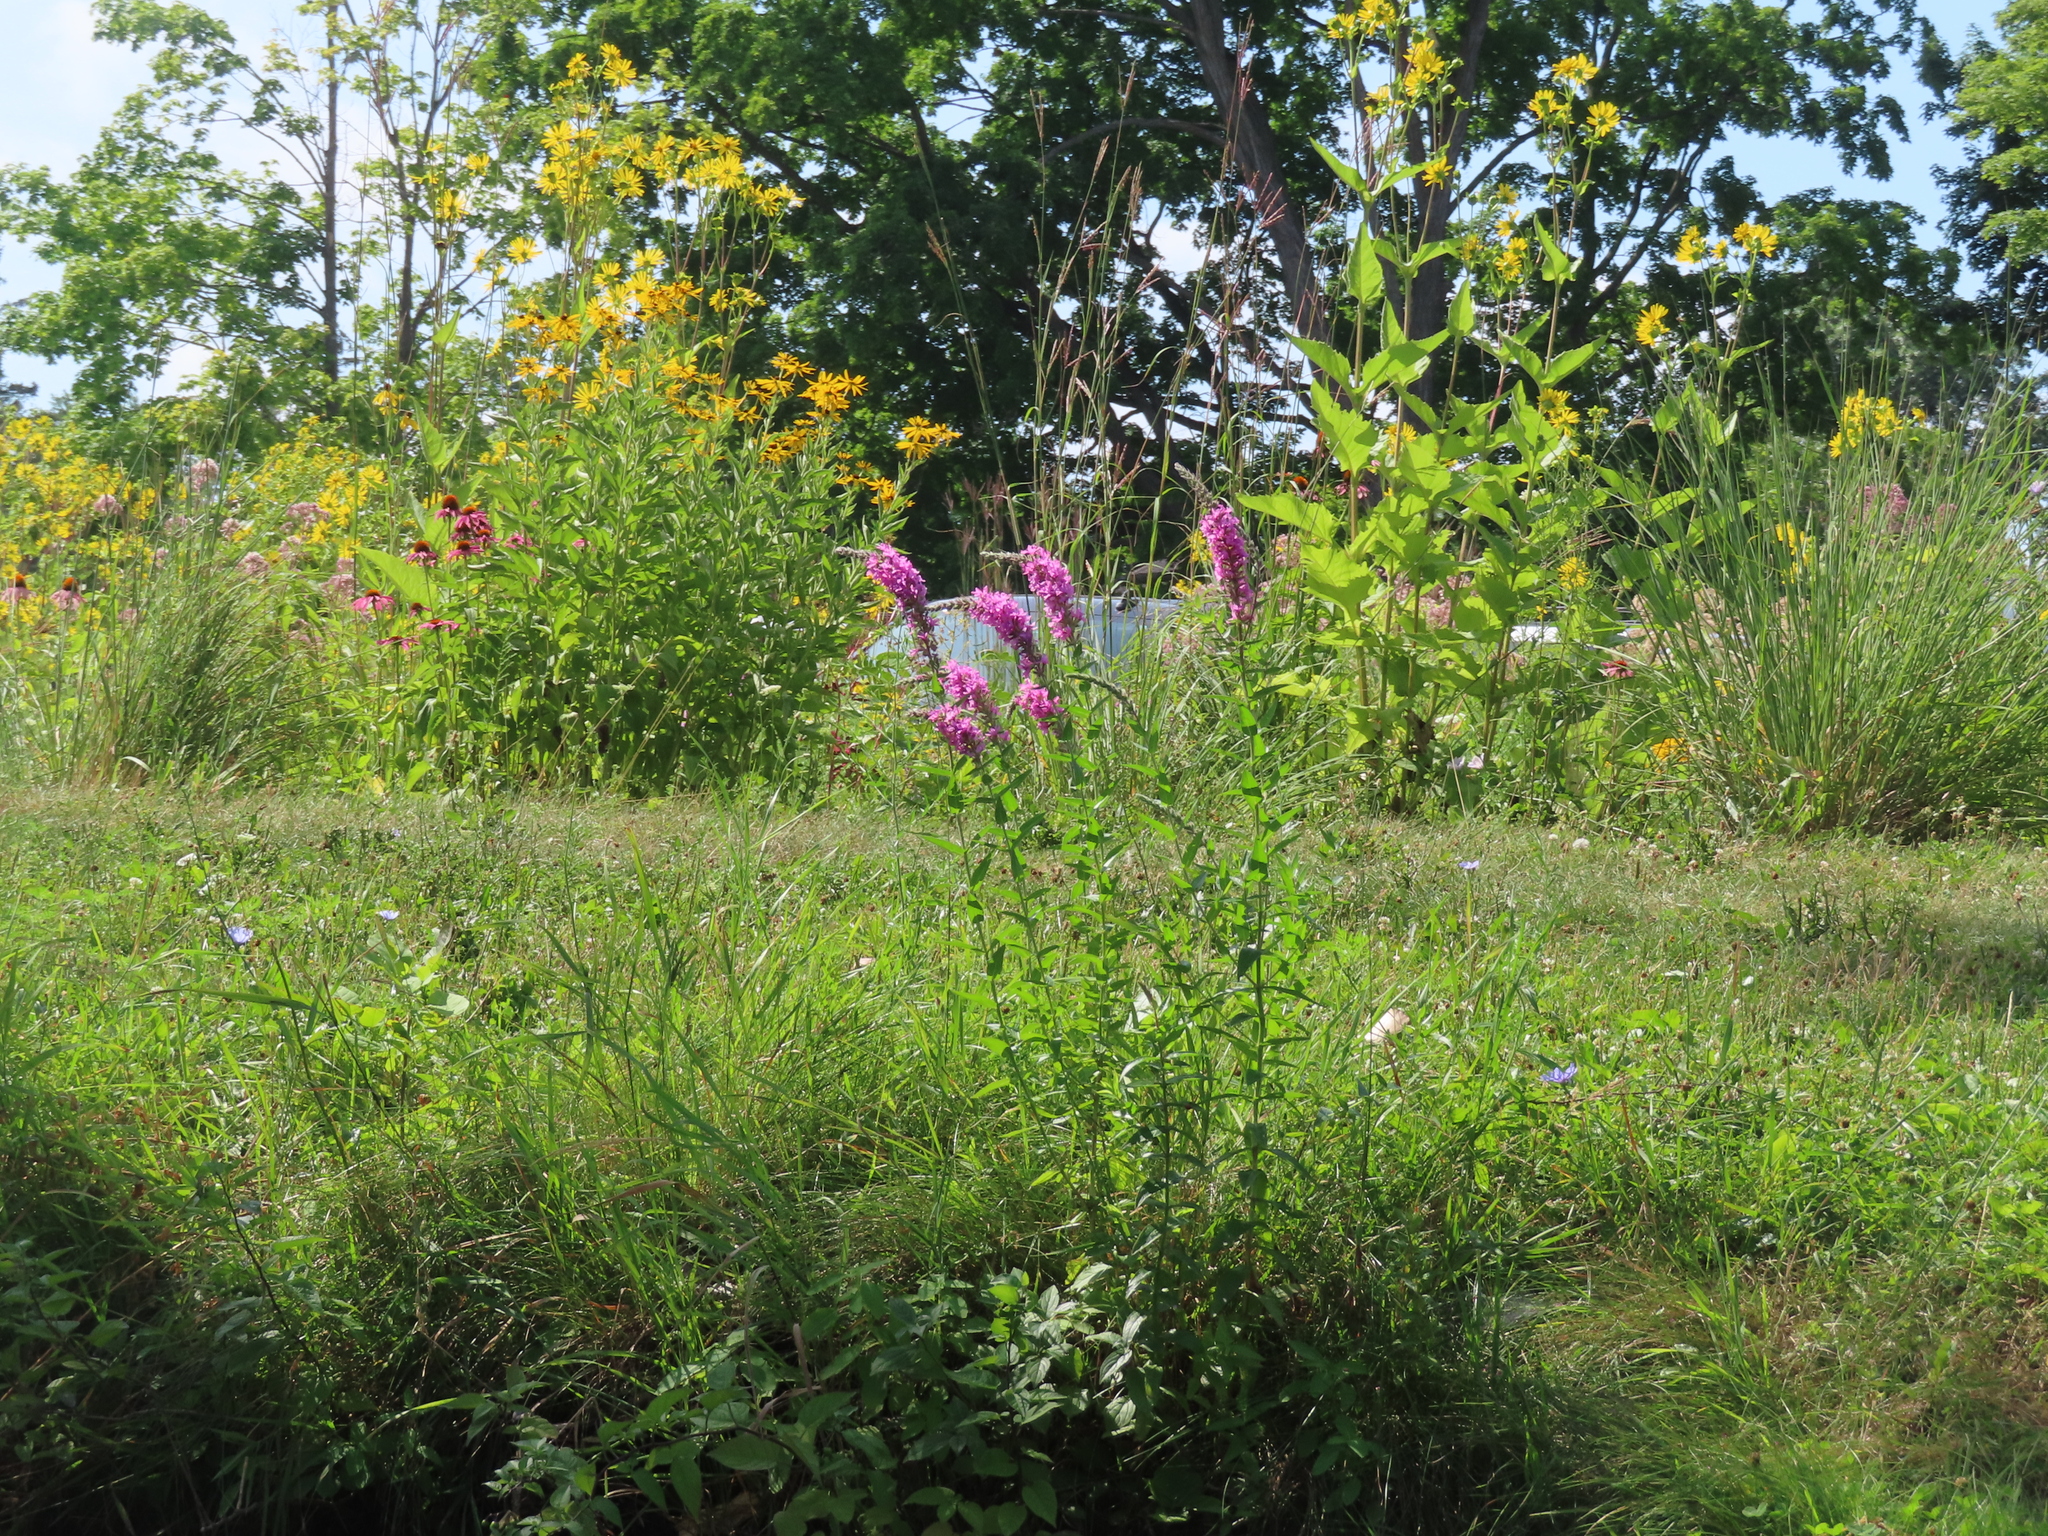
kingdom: Plantae
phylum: Tracheophyta
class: Magnoliopsida
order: Myrtales
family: Lythraceae
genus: Lythrum
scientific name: Lythrum salicaria
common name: Purple loosestrife
